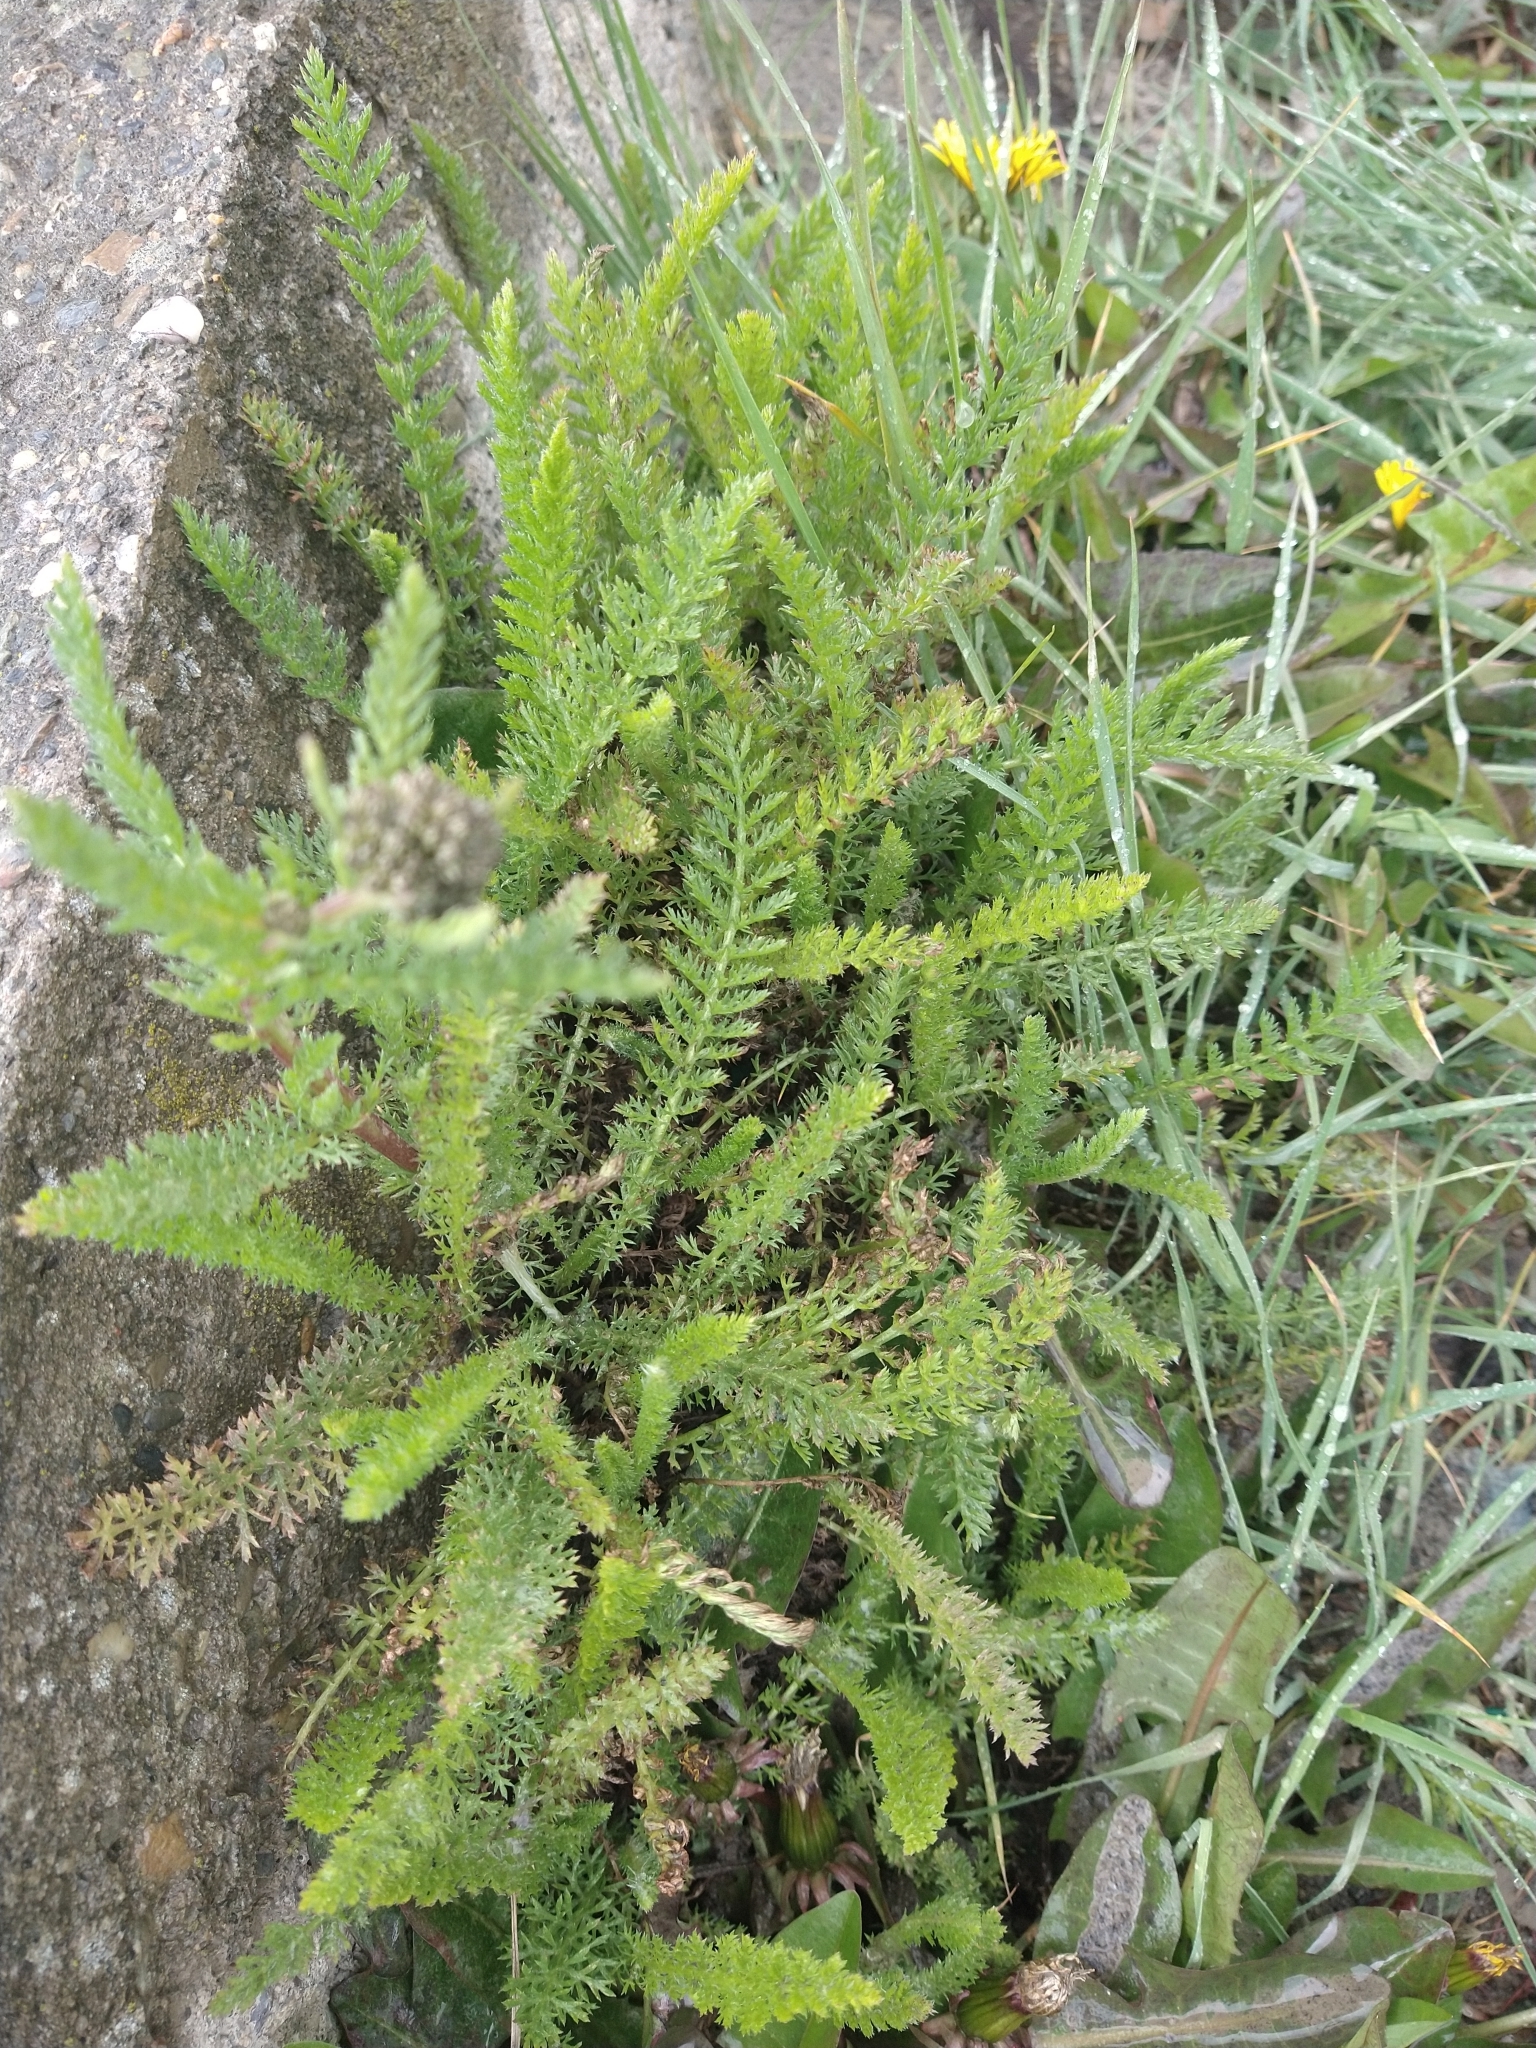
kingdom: Plantae
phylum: Tracheophyta
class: Magnoliopsida
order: Asterales
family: Asteraceae
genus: Achillea
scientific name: Achillea millefolium
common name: Yarrow
